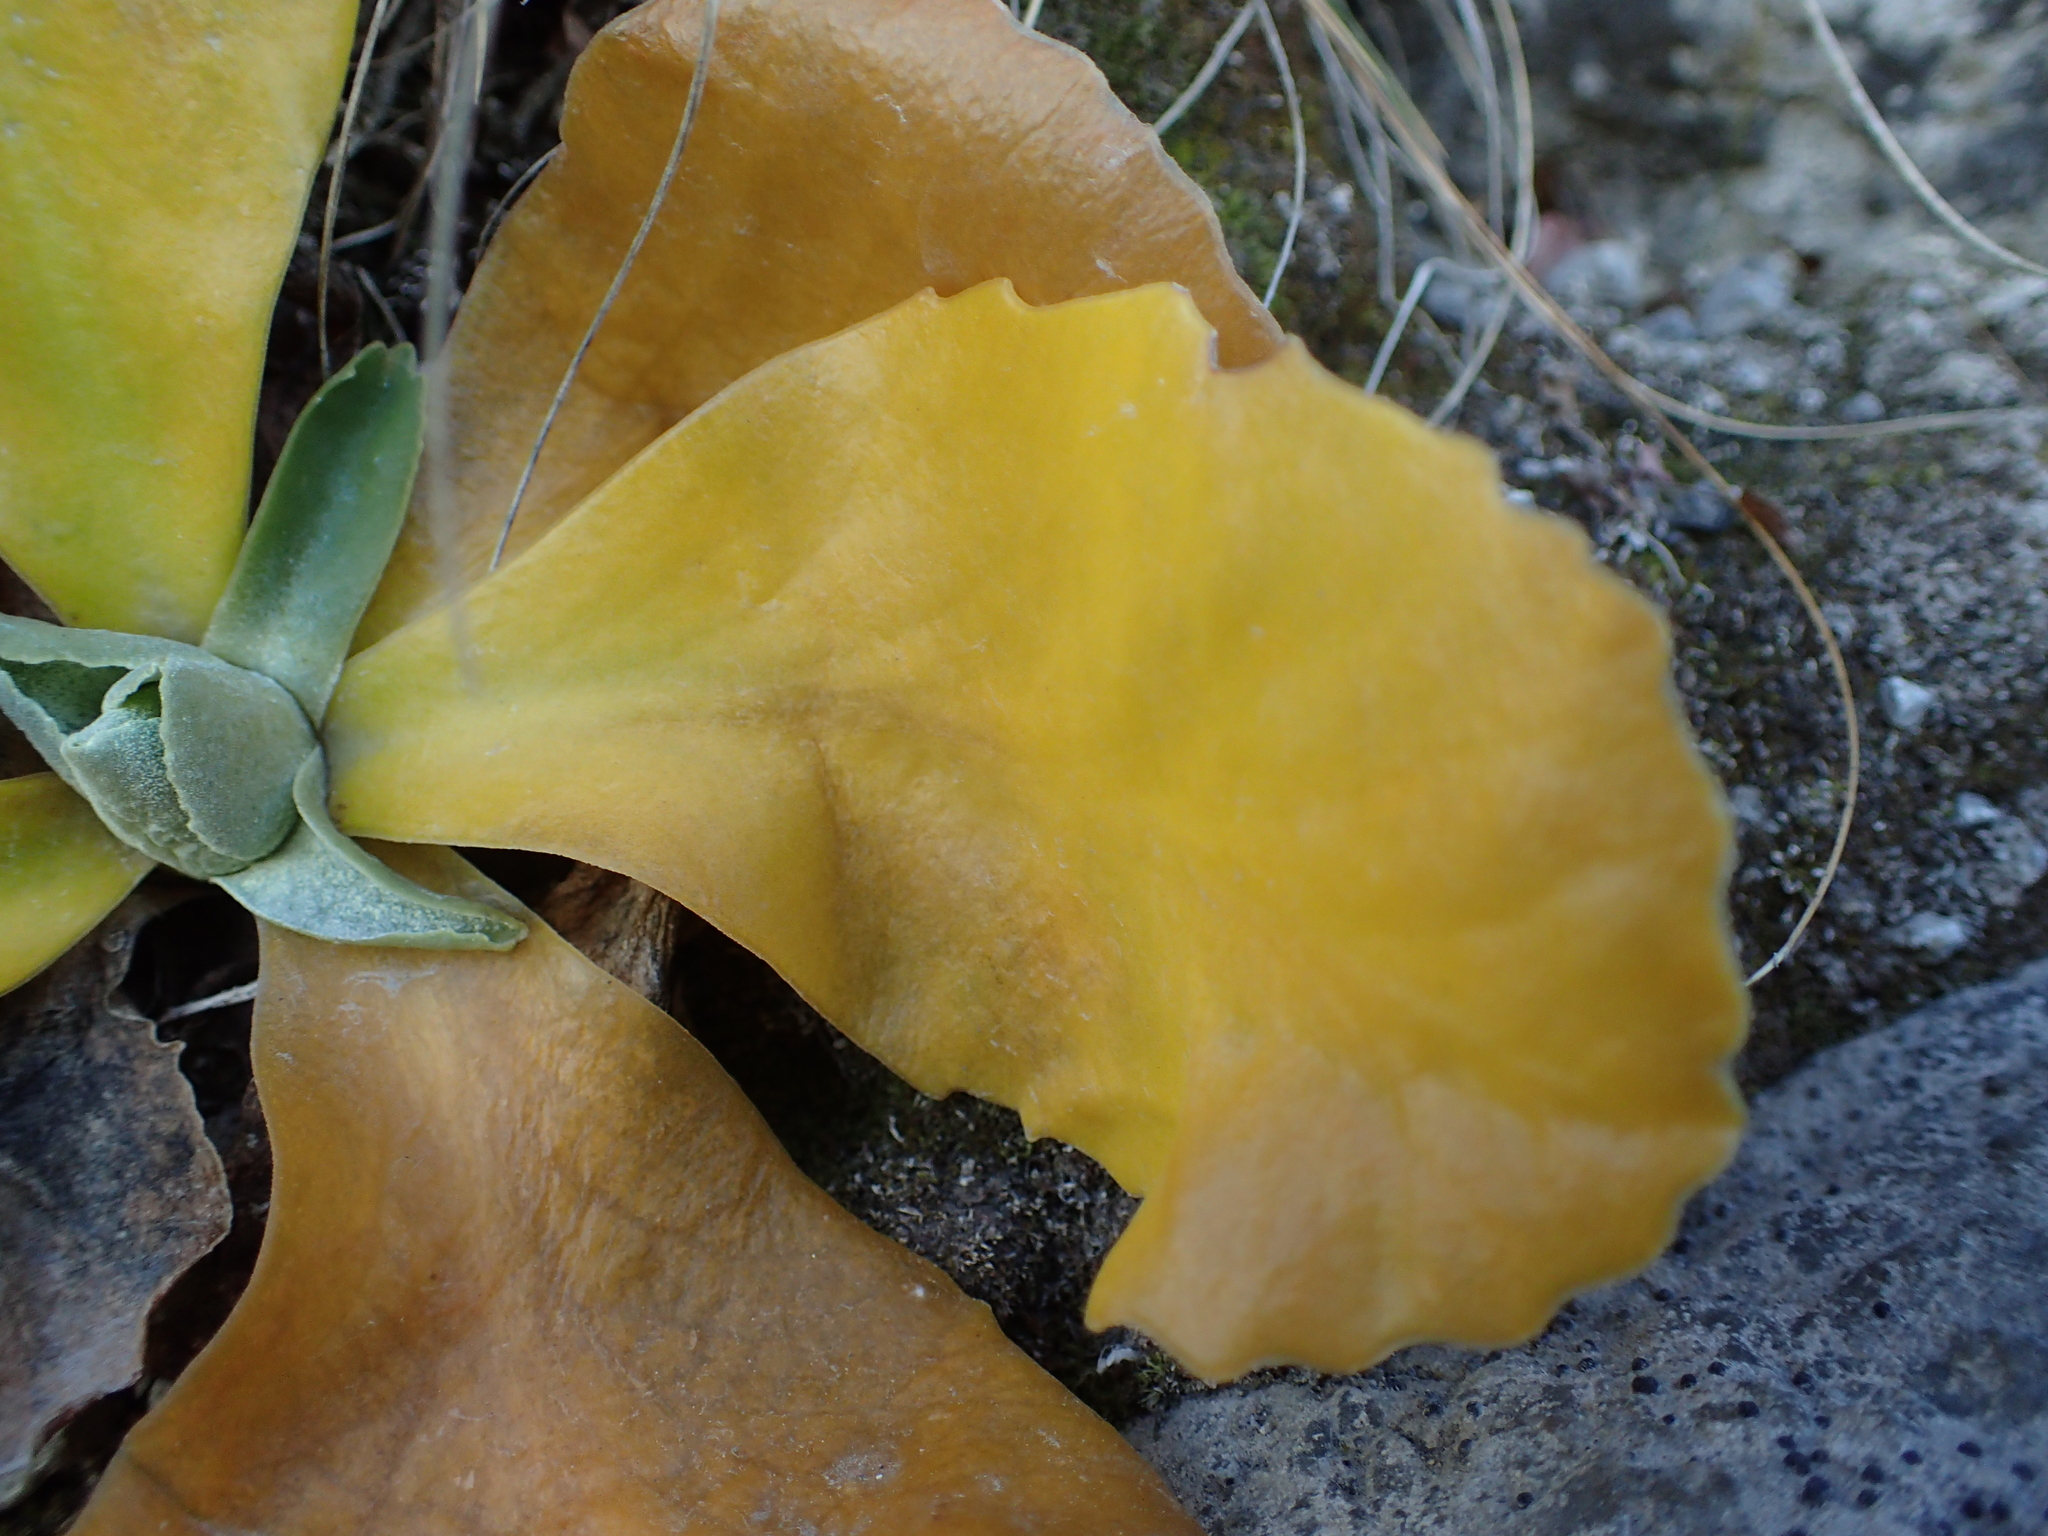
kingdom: Plantae
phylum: Tracheophyta
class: Magnoliopsida
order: Ericales
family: Primulaceae
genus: Primula
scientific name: Primula auricula
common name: Auricula
